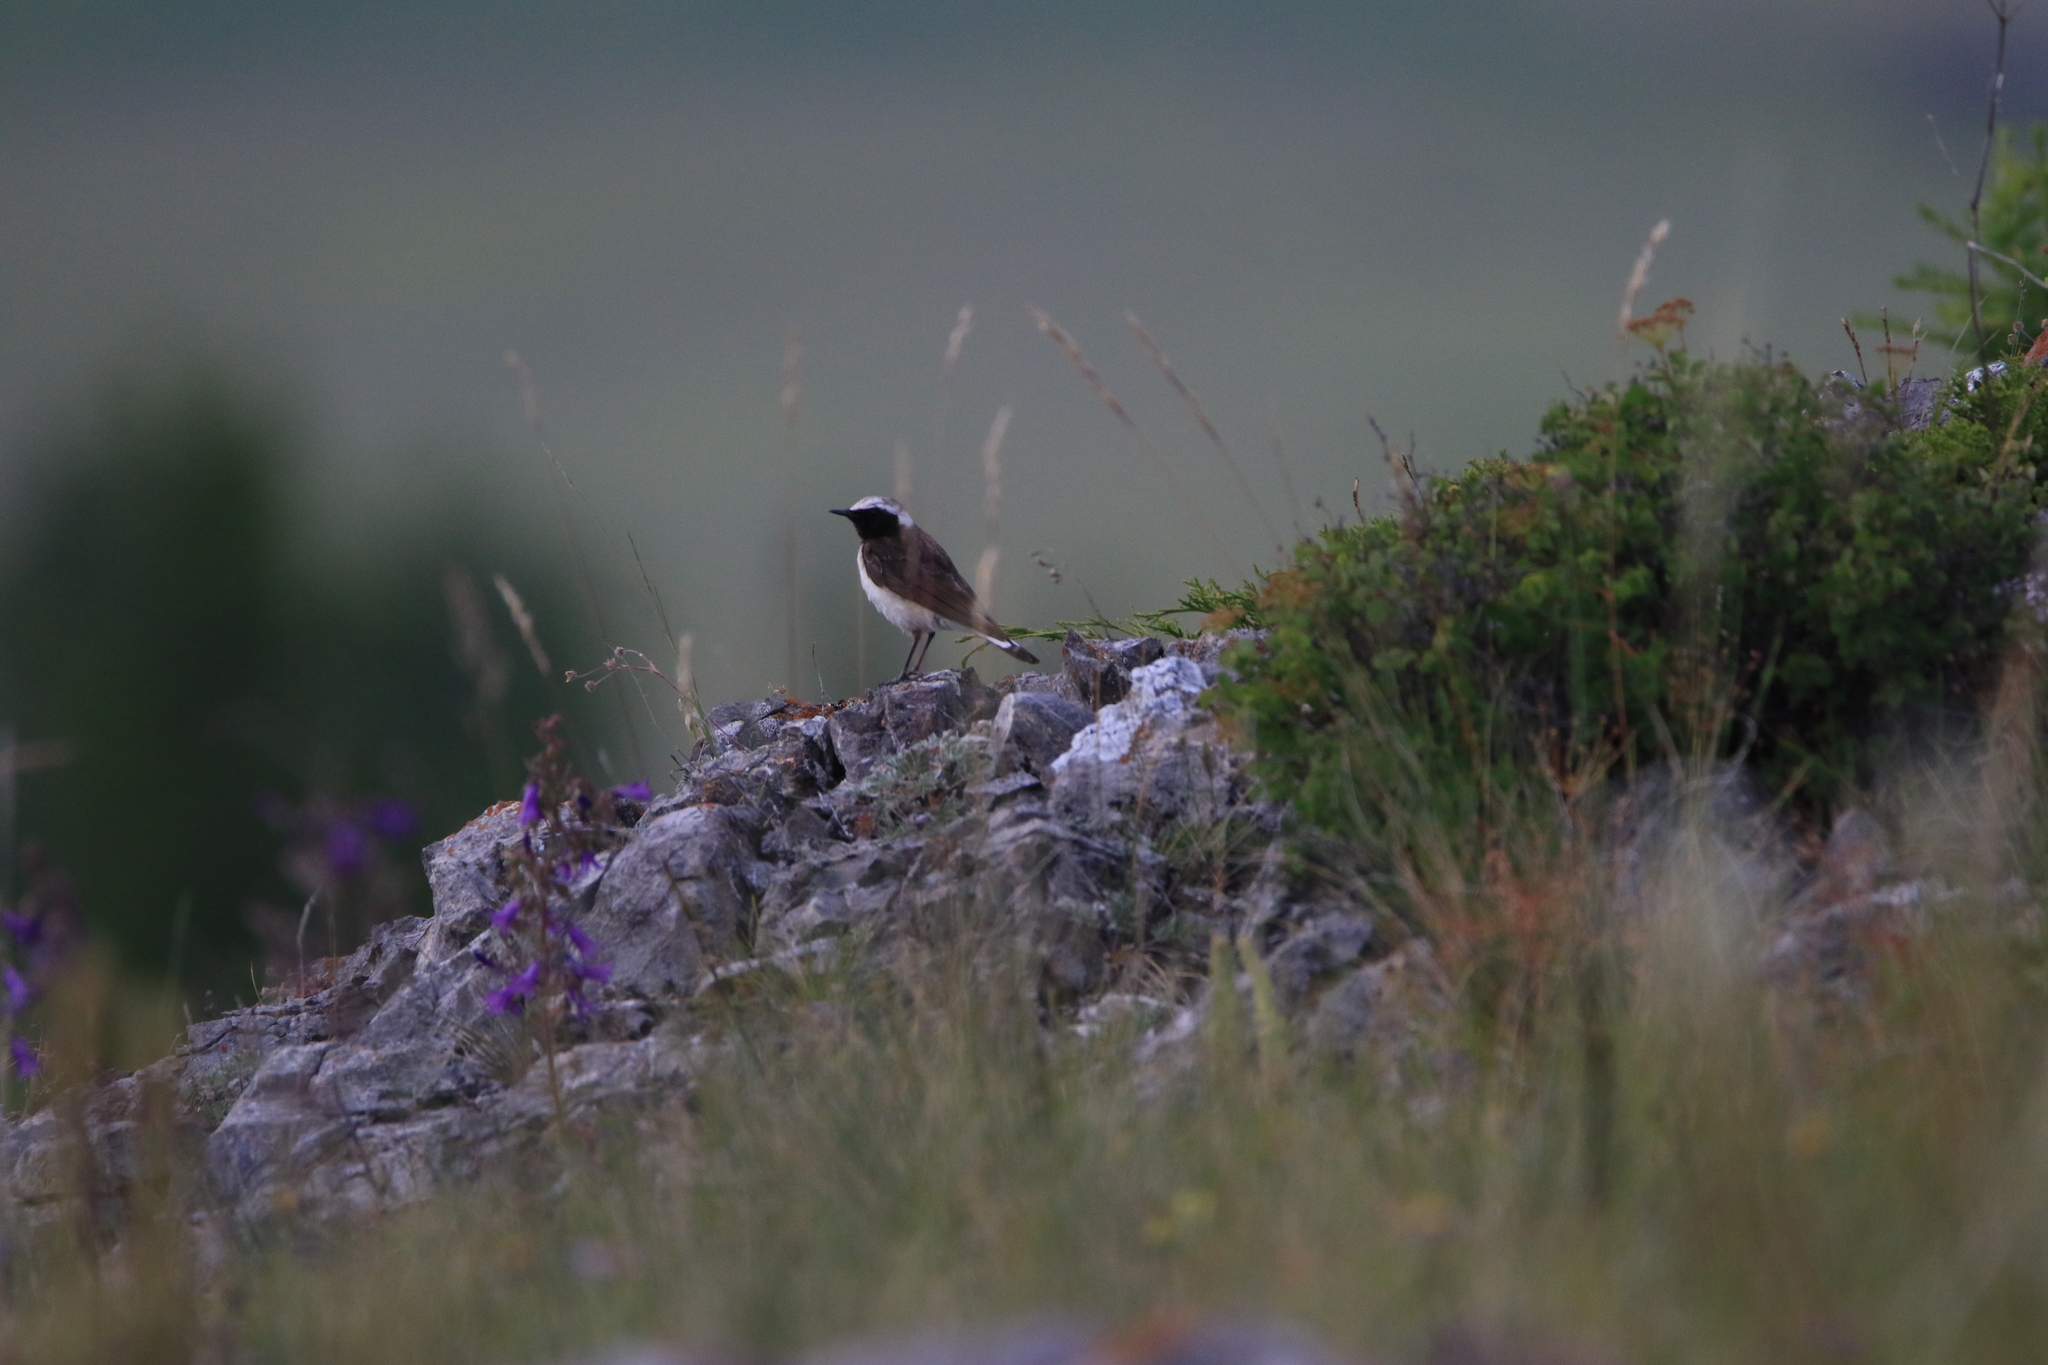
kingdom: Animalia
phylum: Chordata
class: Aves
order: Passeriformes
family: Muscicapidae
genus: Oenanthe
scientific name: Oenanthe pleschanka
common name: Pied wheatear
